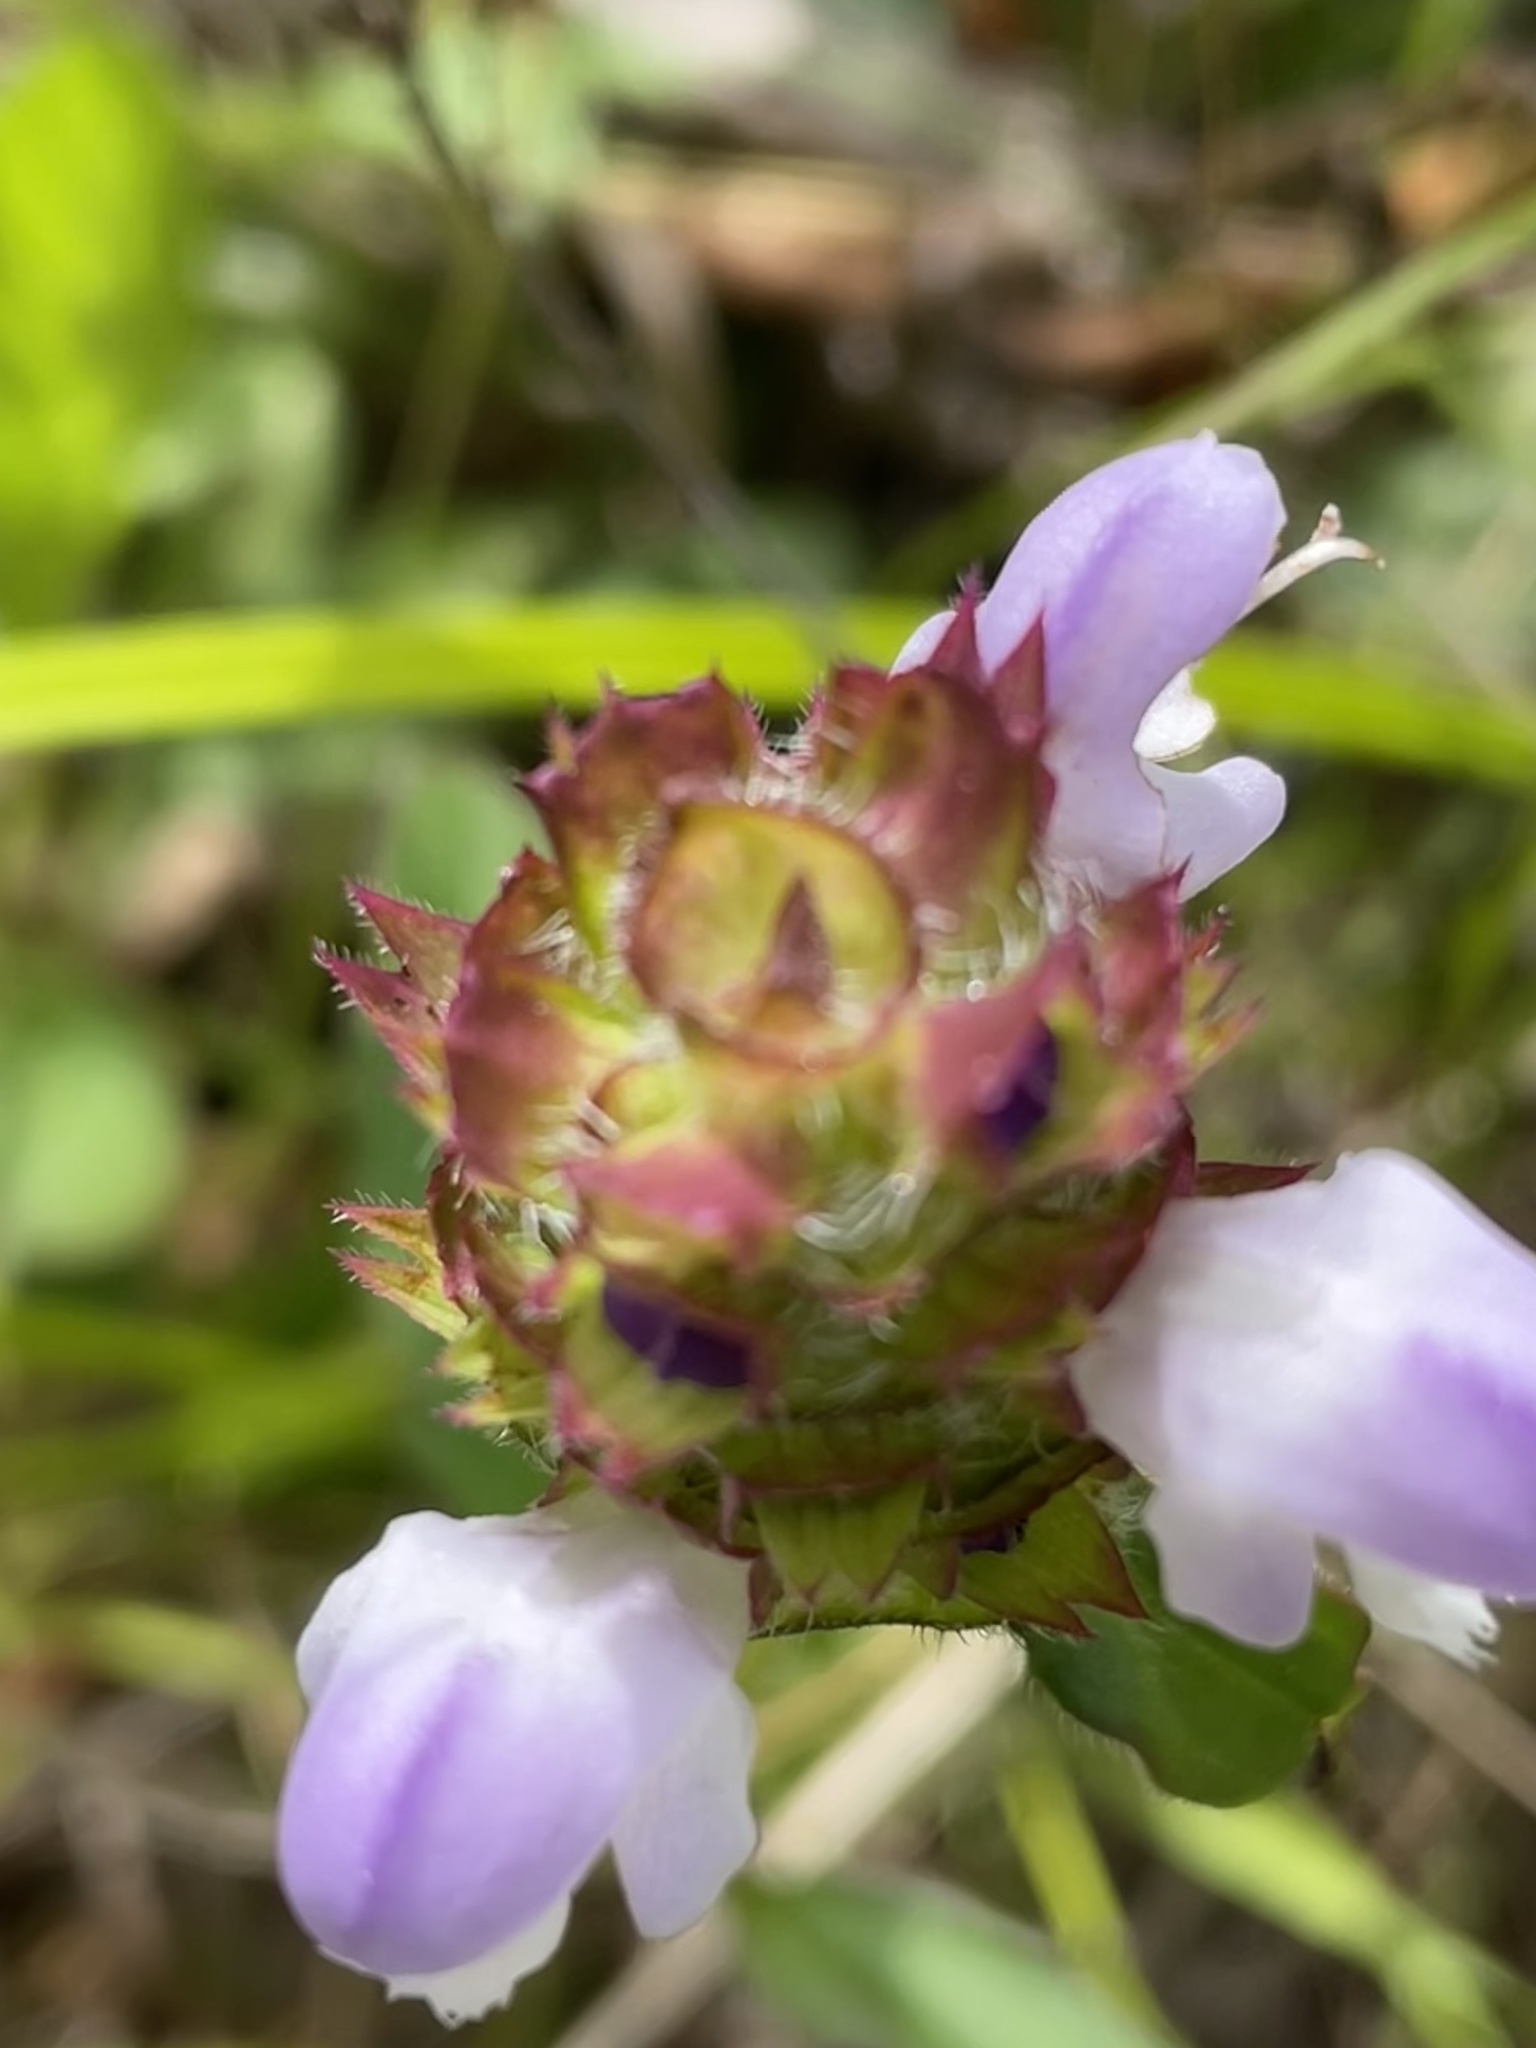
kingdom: Plantae
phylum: Tracheophyta
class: Magnoliopsida
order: Lamiales
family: Lamiaceae
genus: Prunella
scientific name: Prunella vulgaris
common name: Heal-all
